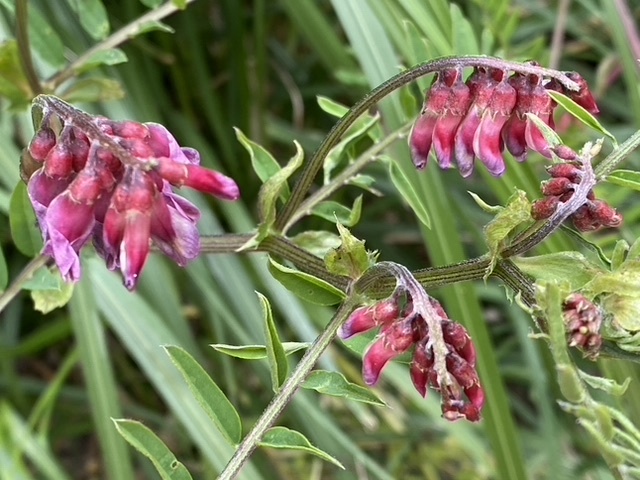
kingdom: Plantae
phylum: Tracheophyta
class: Magnoliopsida
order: Fabales
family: Fabaceae
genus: Vicia
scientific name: Vicia
